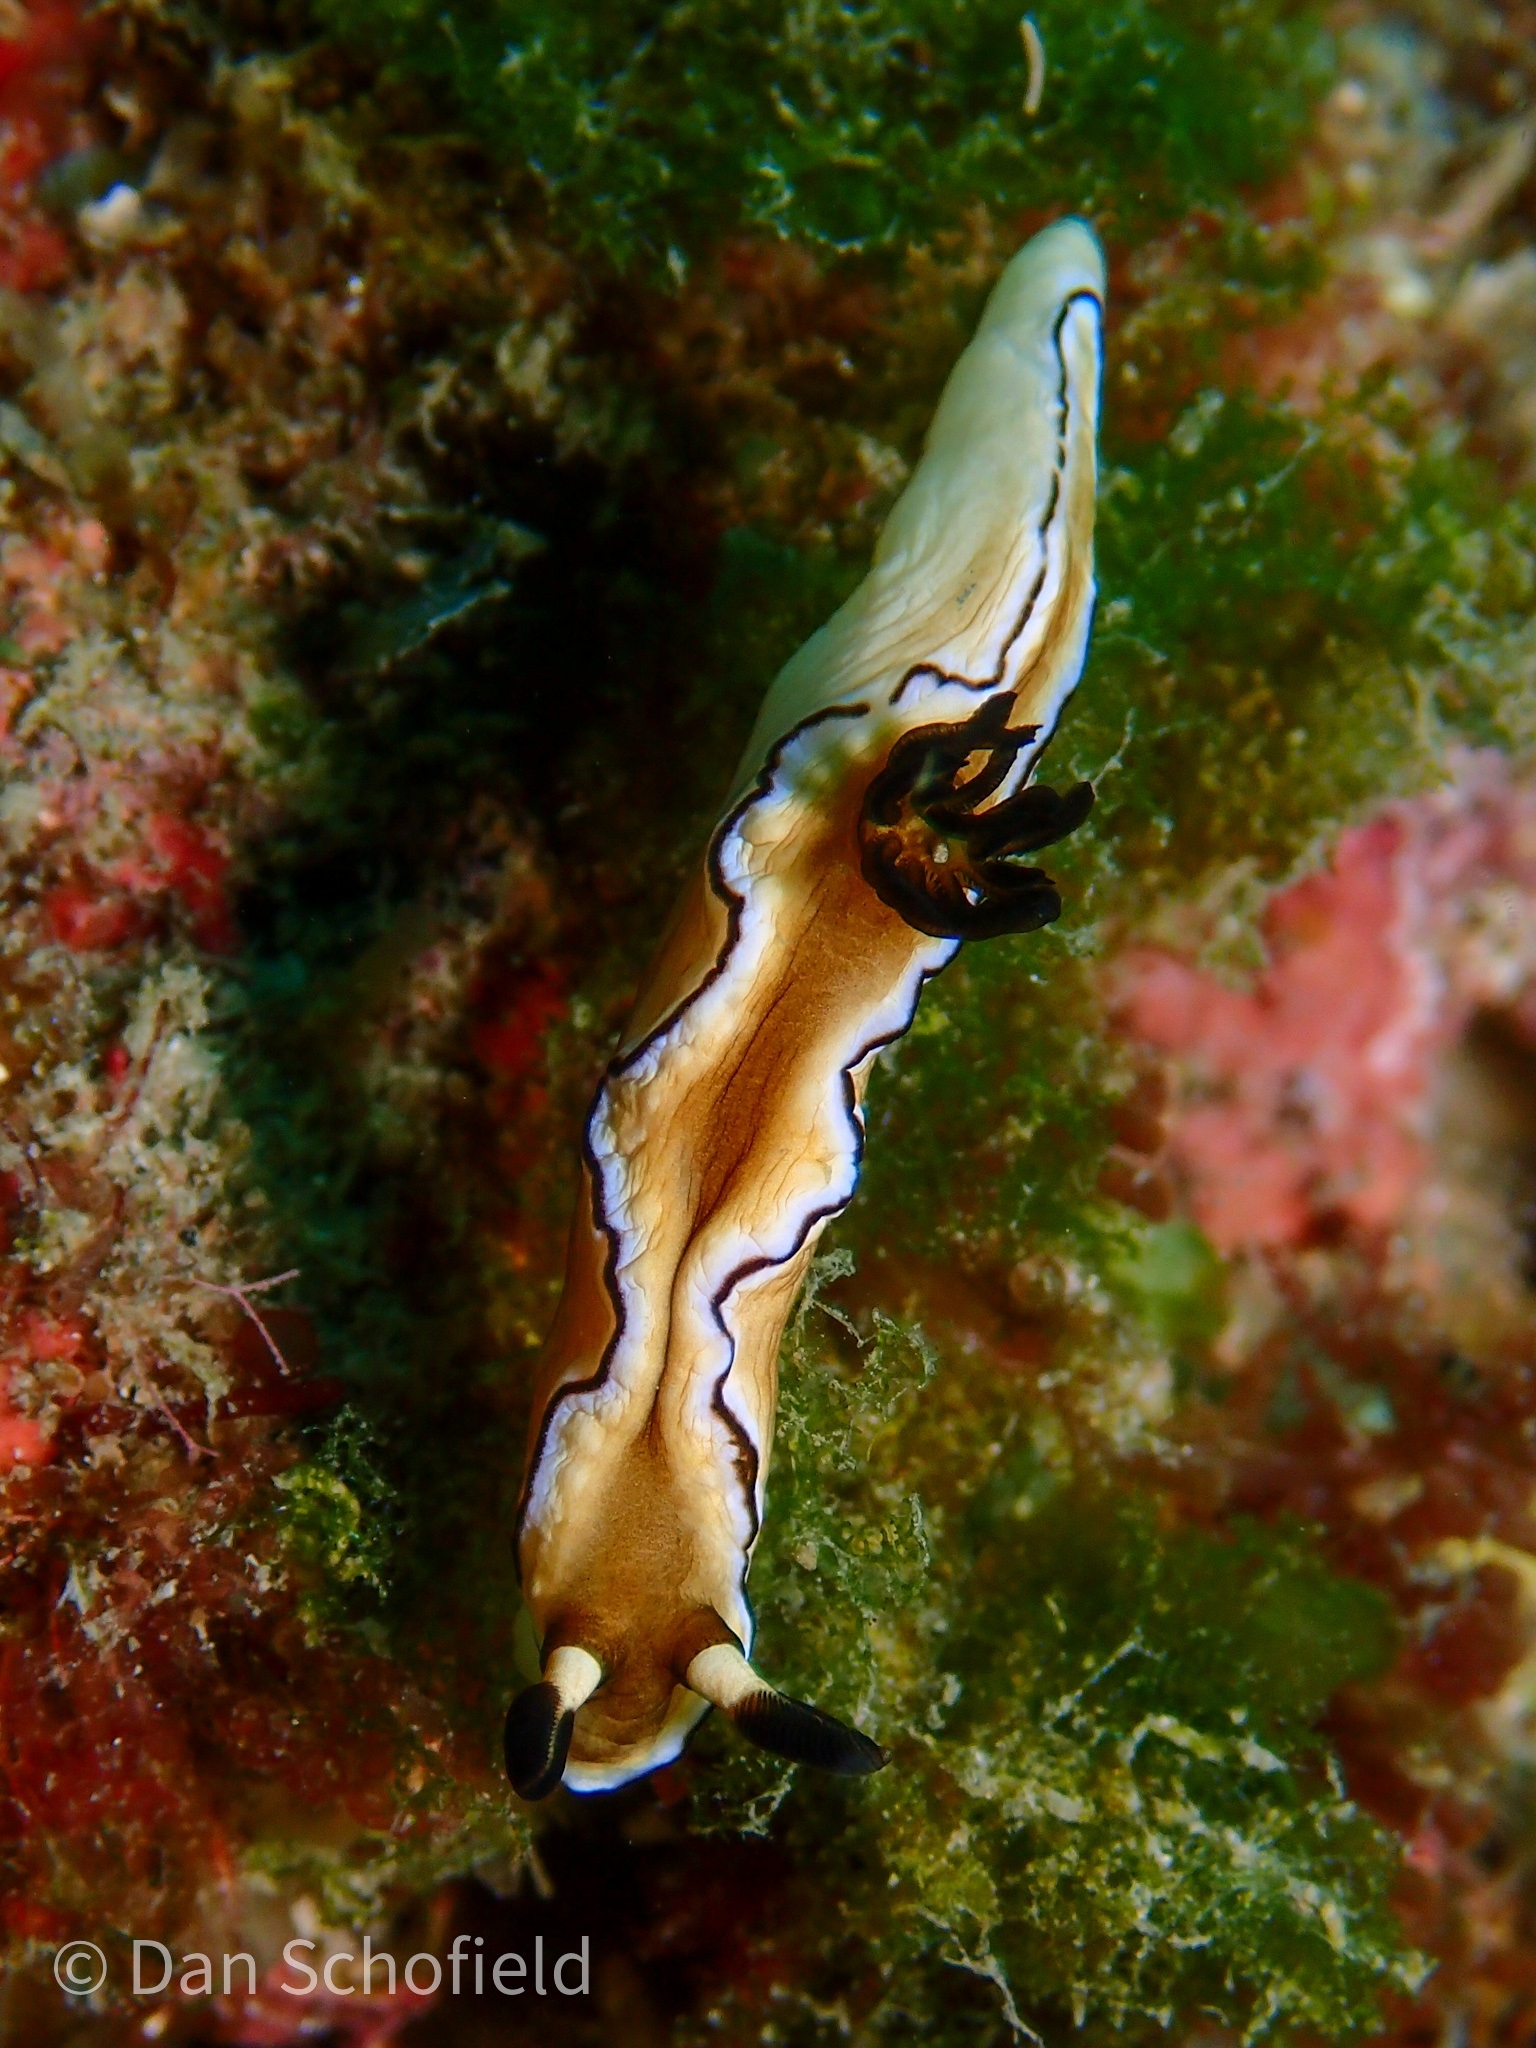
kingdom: Animalia
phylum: Mollusca
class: Gastropoda
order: Nudibranchia
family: Chromodorididae
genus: Doriprismatica
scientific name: Doriprismatica atromarginata
